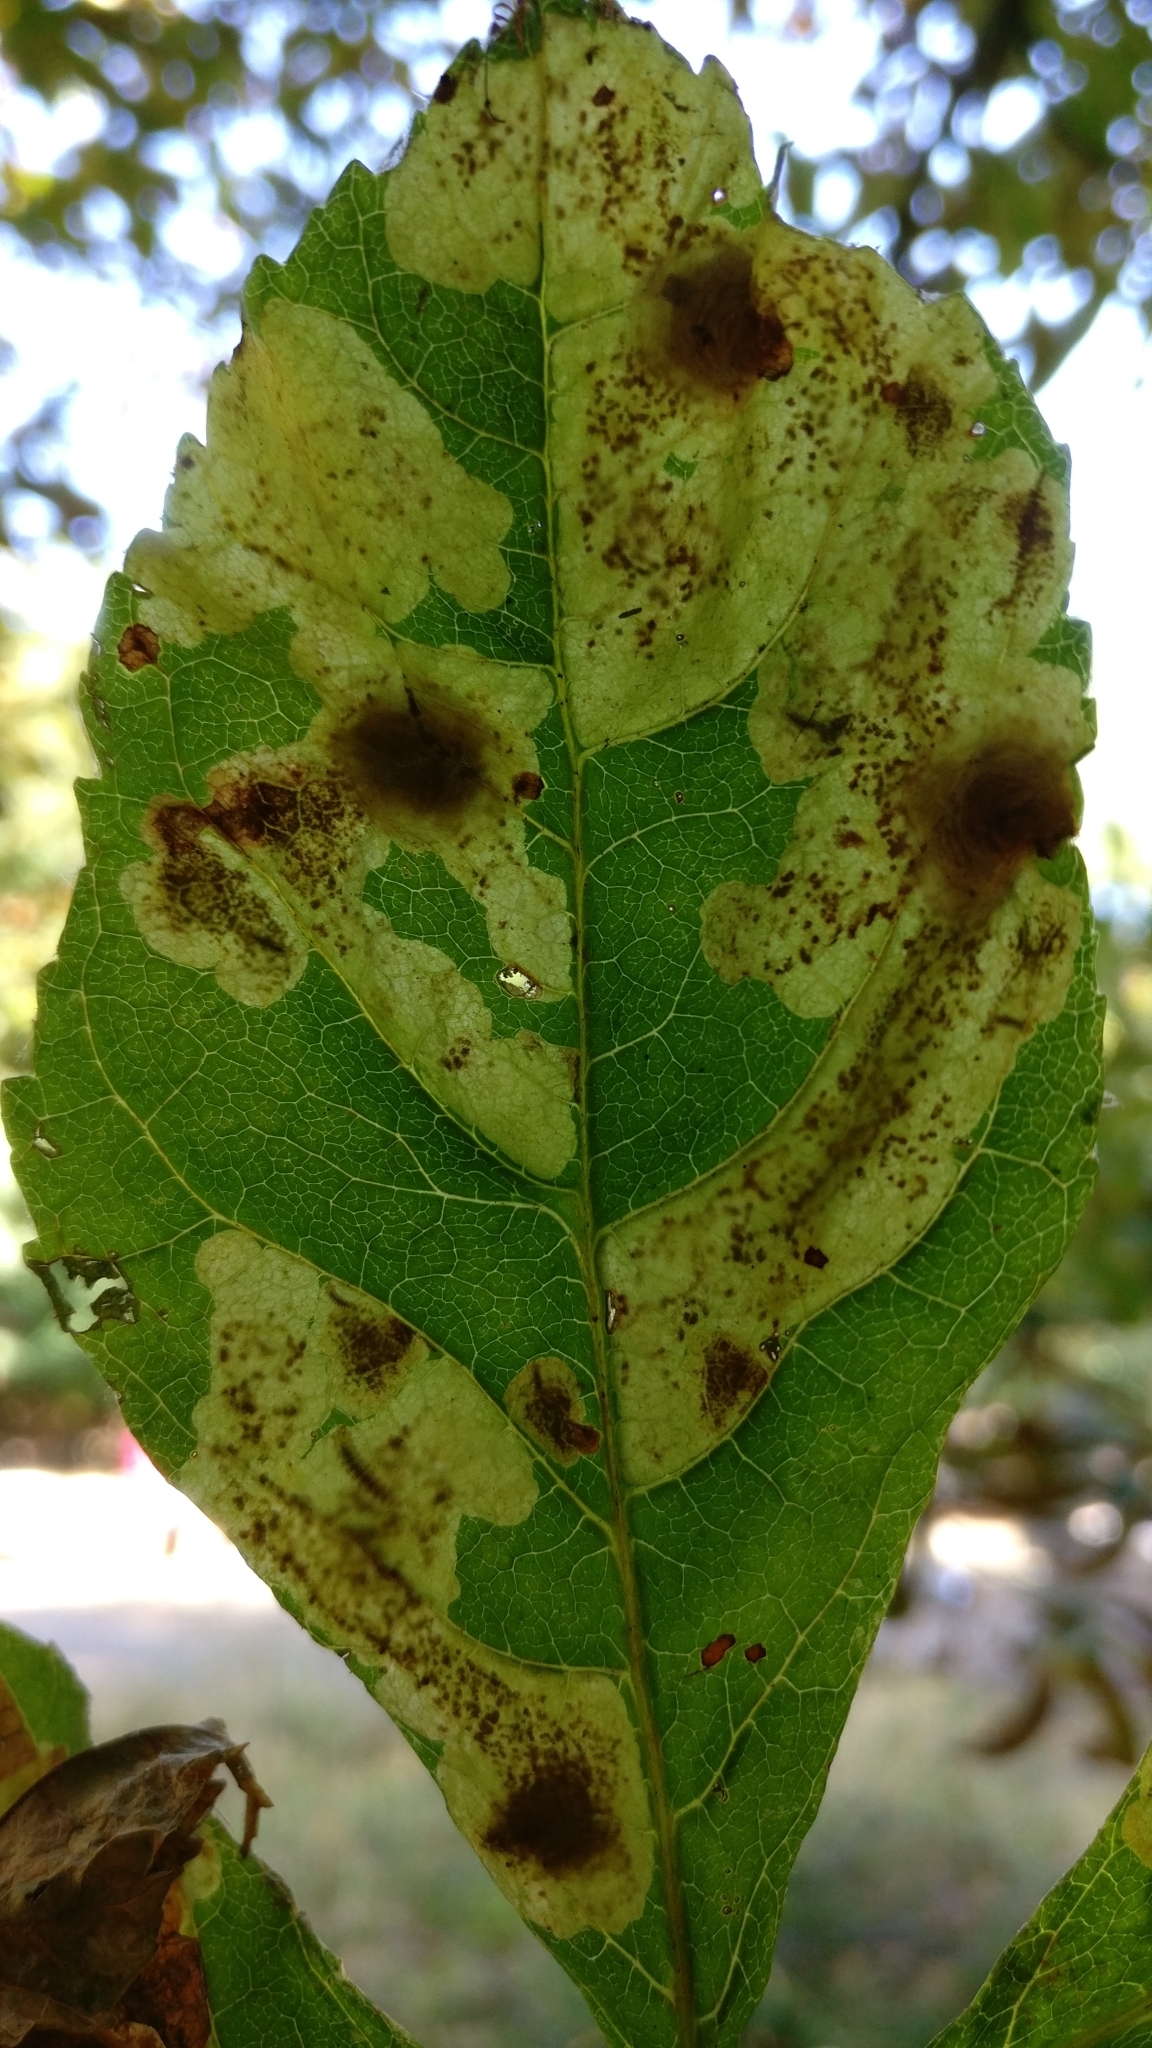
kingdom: Animalia
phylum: Arthropoda
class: Insecta
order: Lepidoptera
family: Gracillariidae
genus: Cameraria
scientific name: Cameraria ohridella
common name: Horse-chestnut leaf-miner
